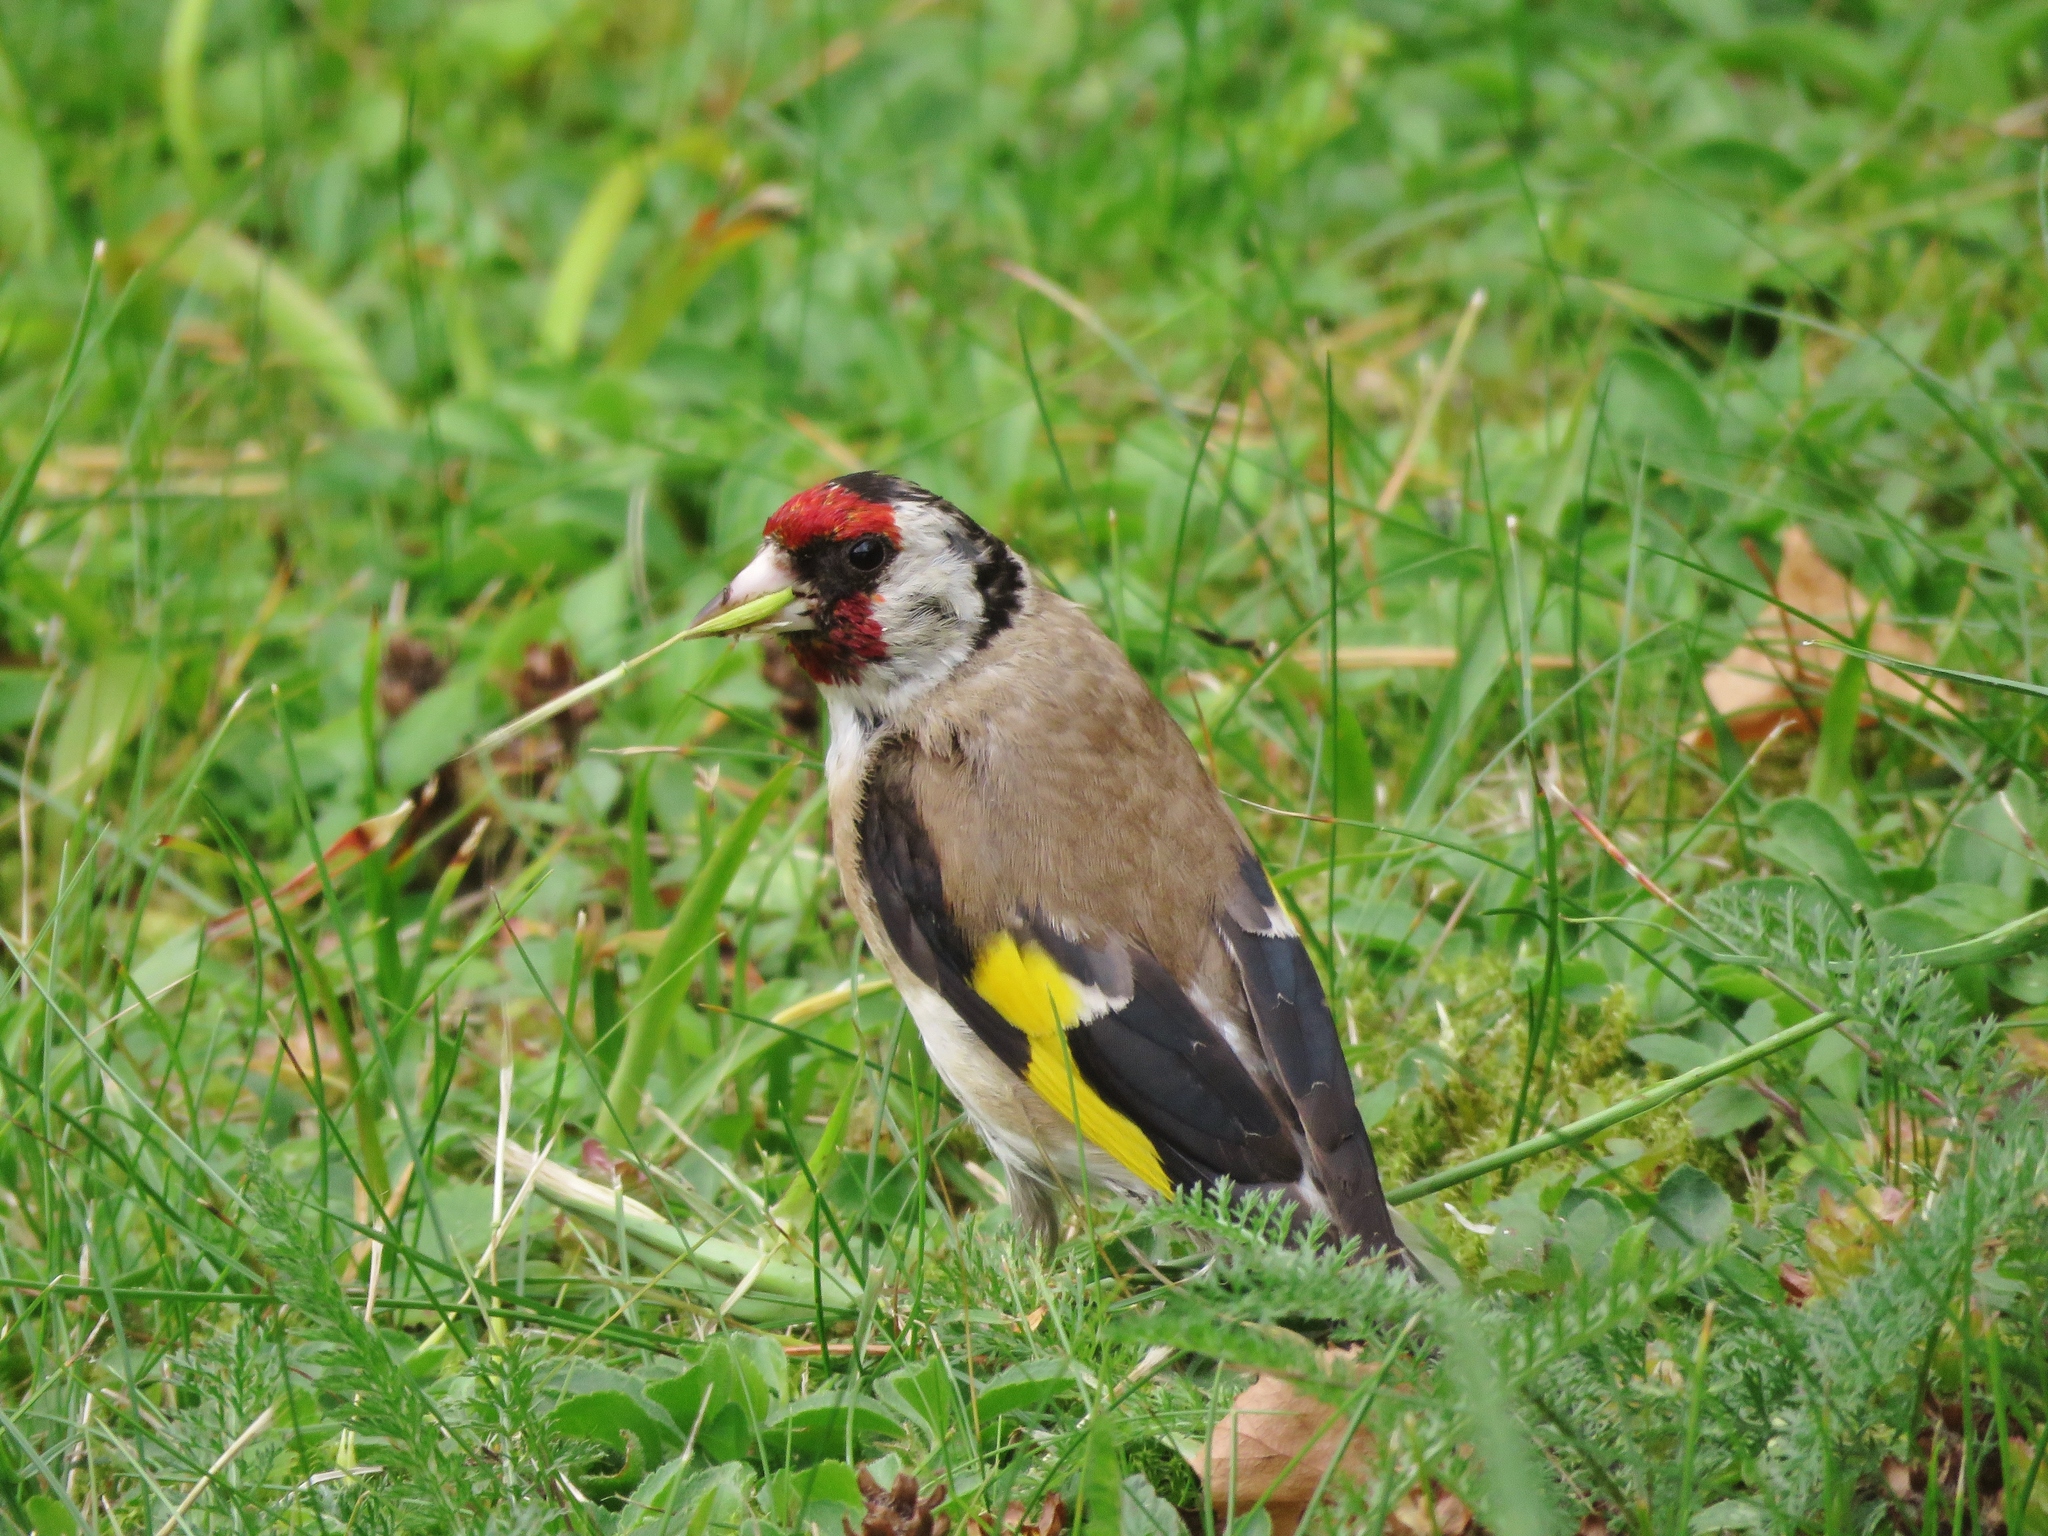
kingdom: Animalia
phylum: Chordata
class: Aves
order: Passeriformes
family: Fringillidae
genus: Carduelis
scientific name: Carduelis carduelis
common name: European goldfinch
